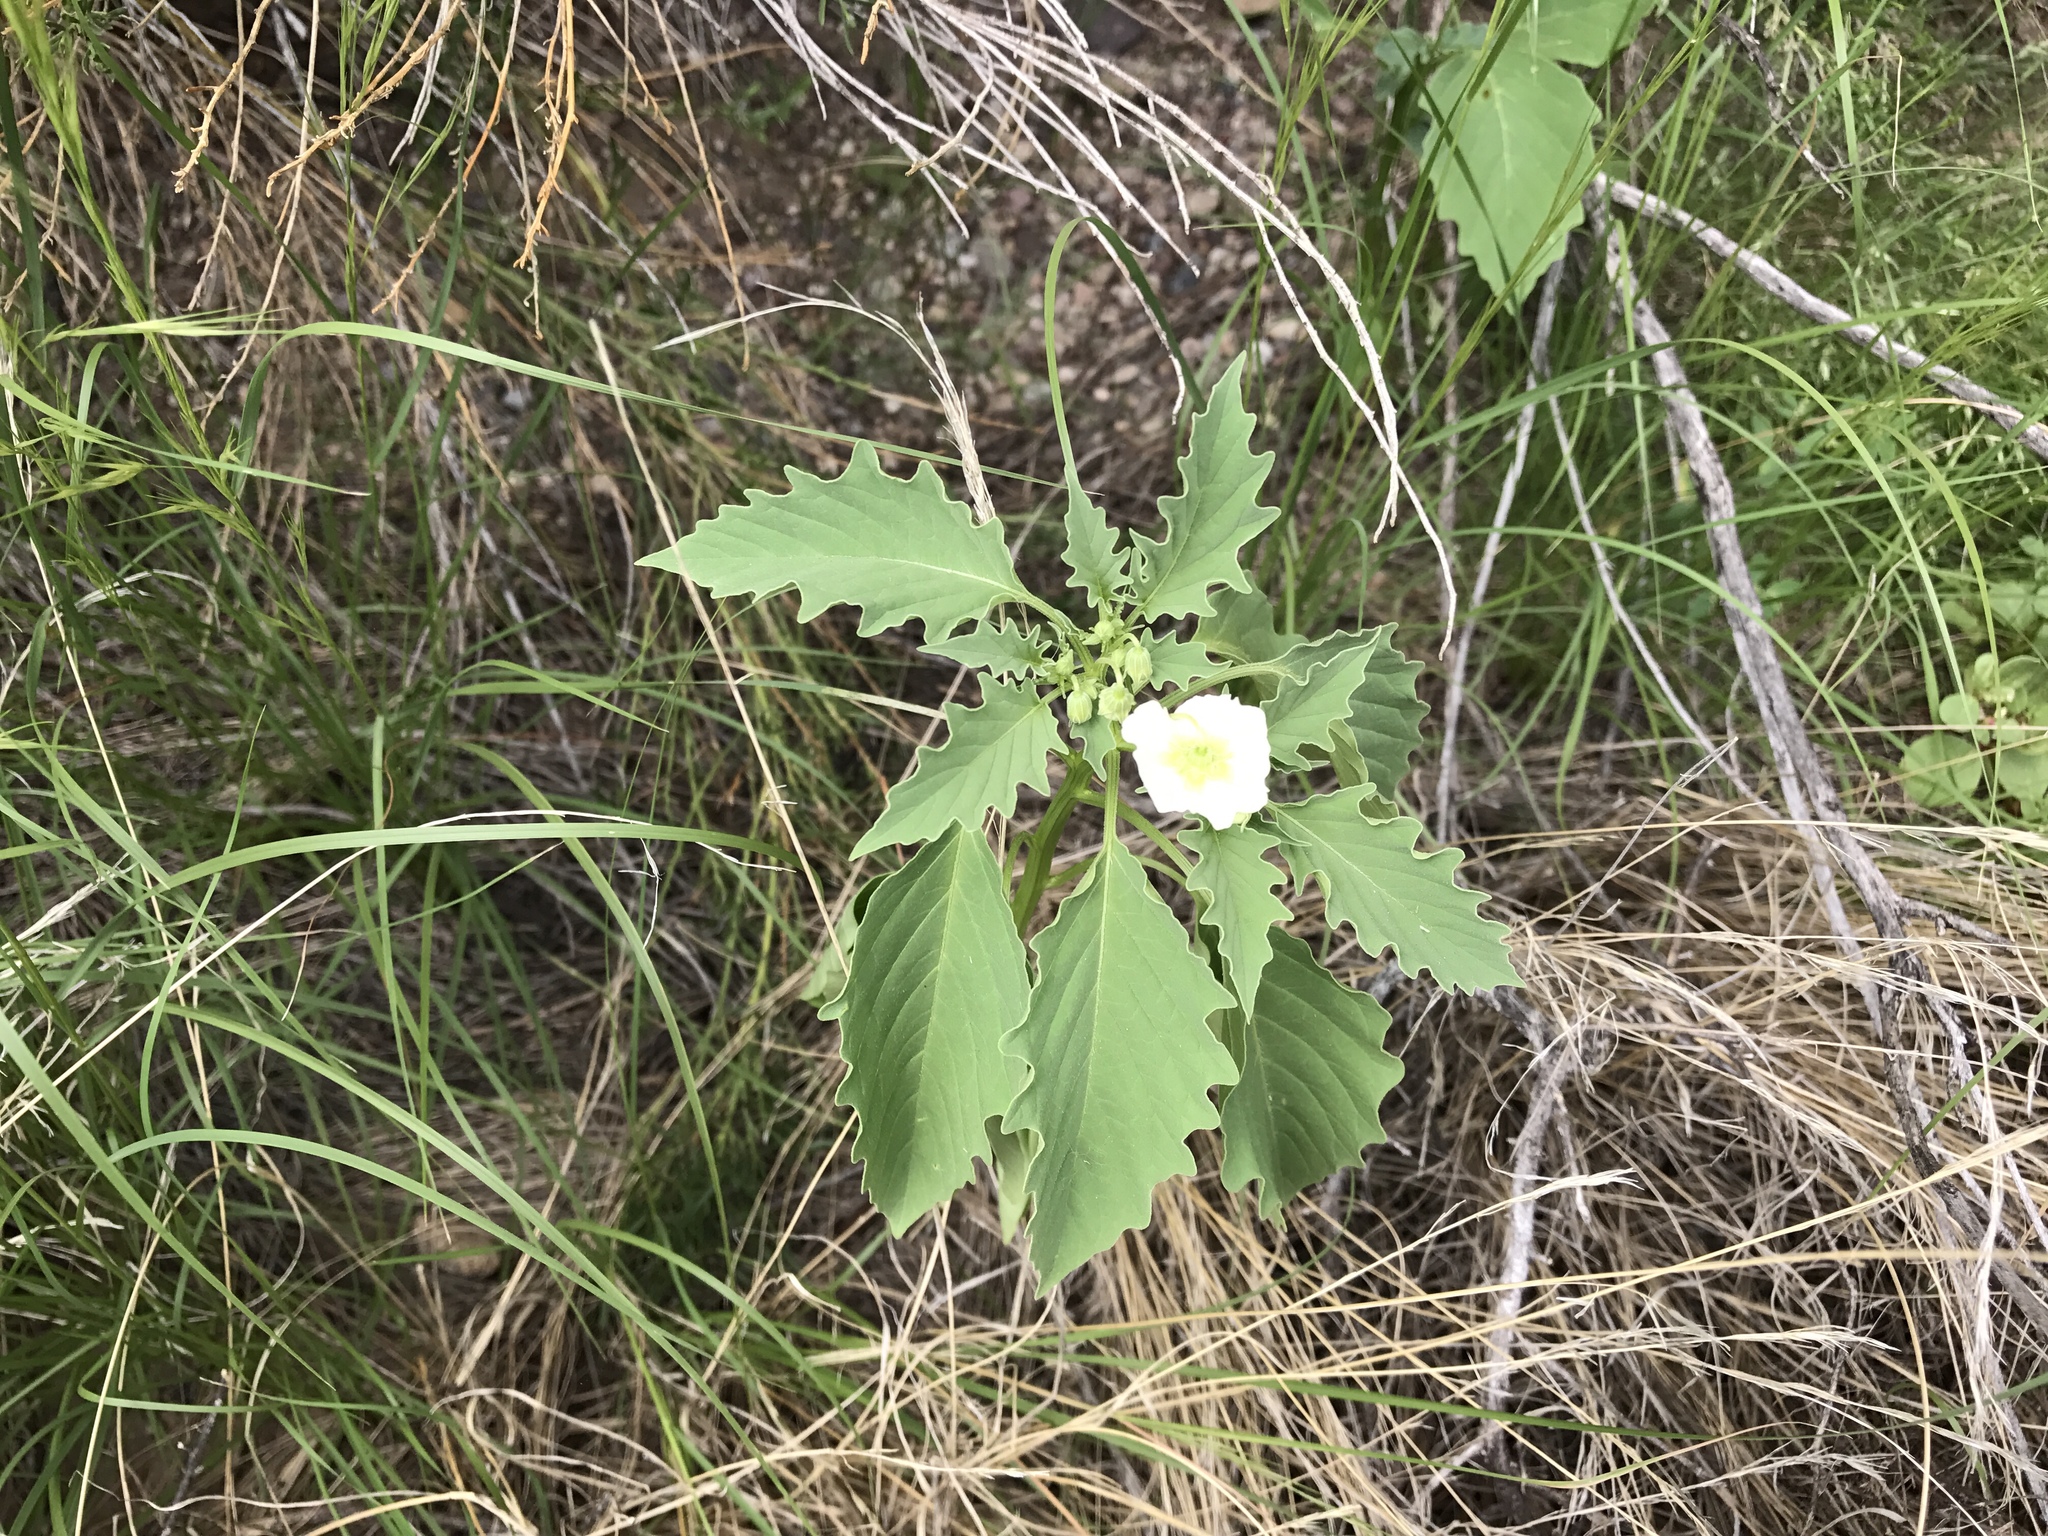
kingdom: Plantae
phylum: Tracheophyta
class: Magnoliopsida
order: Solanales
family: Solanaceae
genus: Physalis
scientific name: Physalis acutifolia
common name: Wright's ground-cherry
